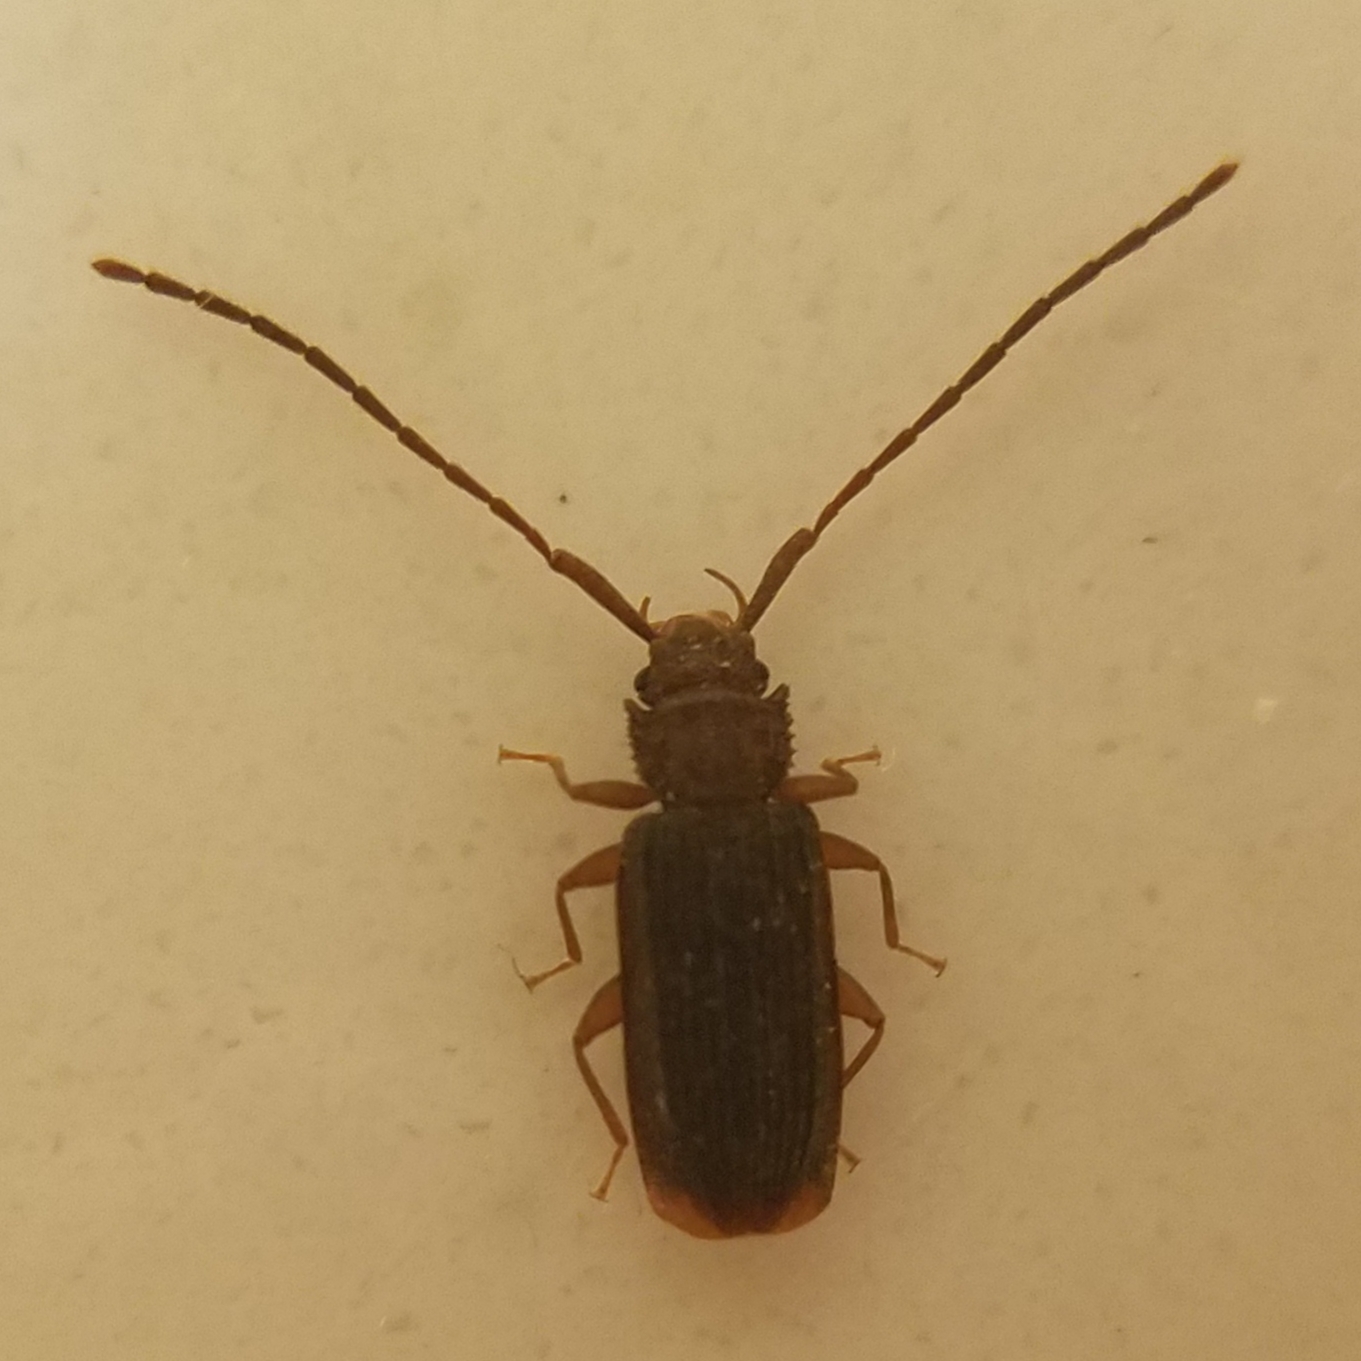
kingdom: Animalia
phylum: Arthropoda
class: Insecta
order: Coleoptera
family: Silvanidae
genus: Uleiota
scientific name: Uleiota dubia
